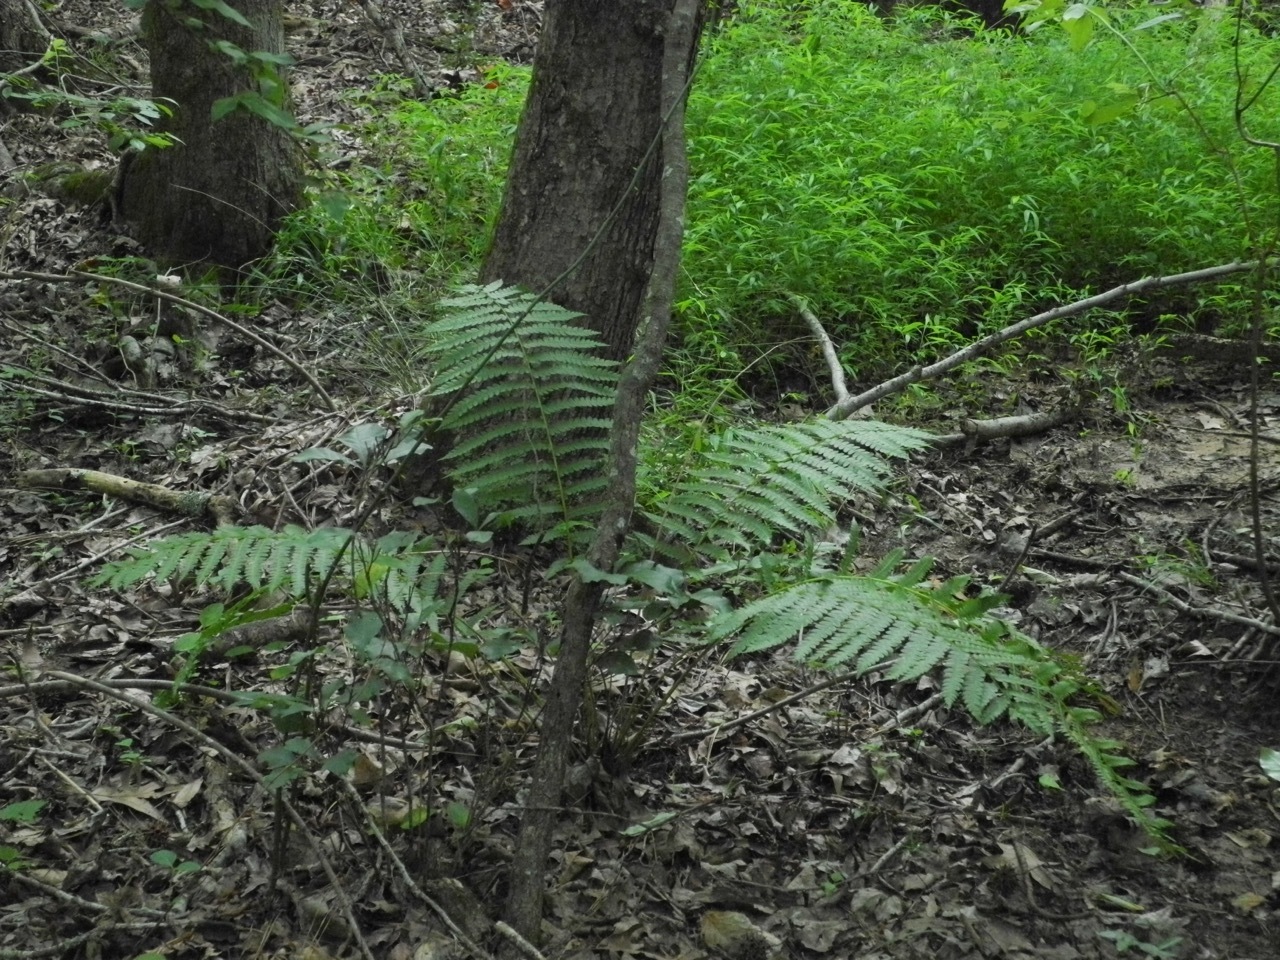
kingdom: Plantae
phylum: Tracheophyta
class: Polypodiopsida
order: Osmundales
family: Osmundaceae
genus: Osmundastrum
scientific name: Osmundastrum cinnamomeum
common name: Cinnamon fern
